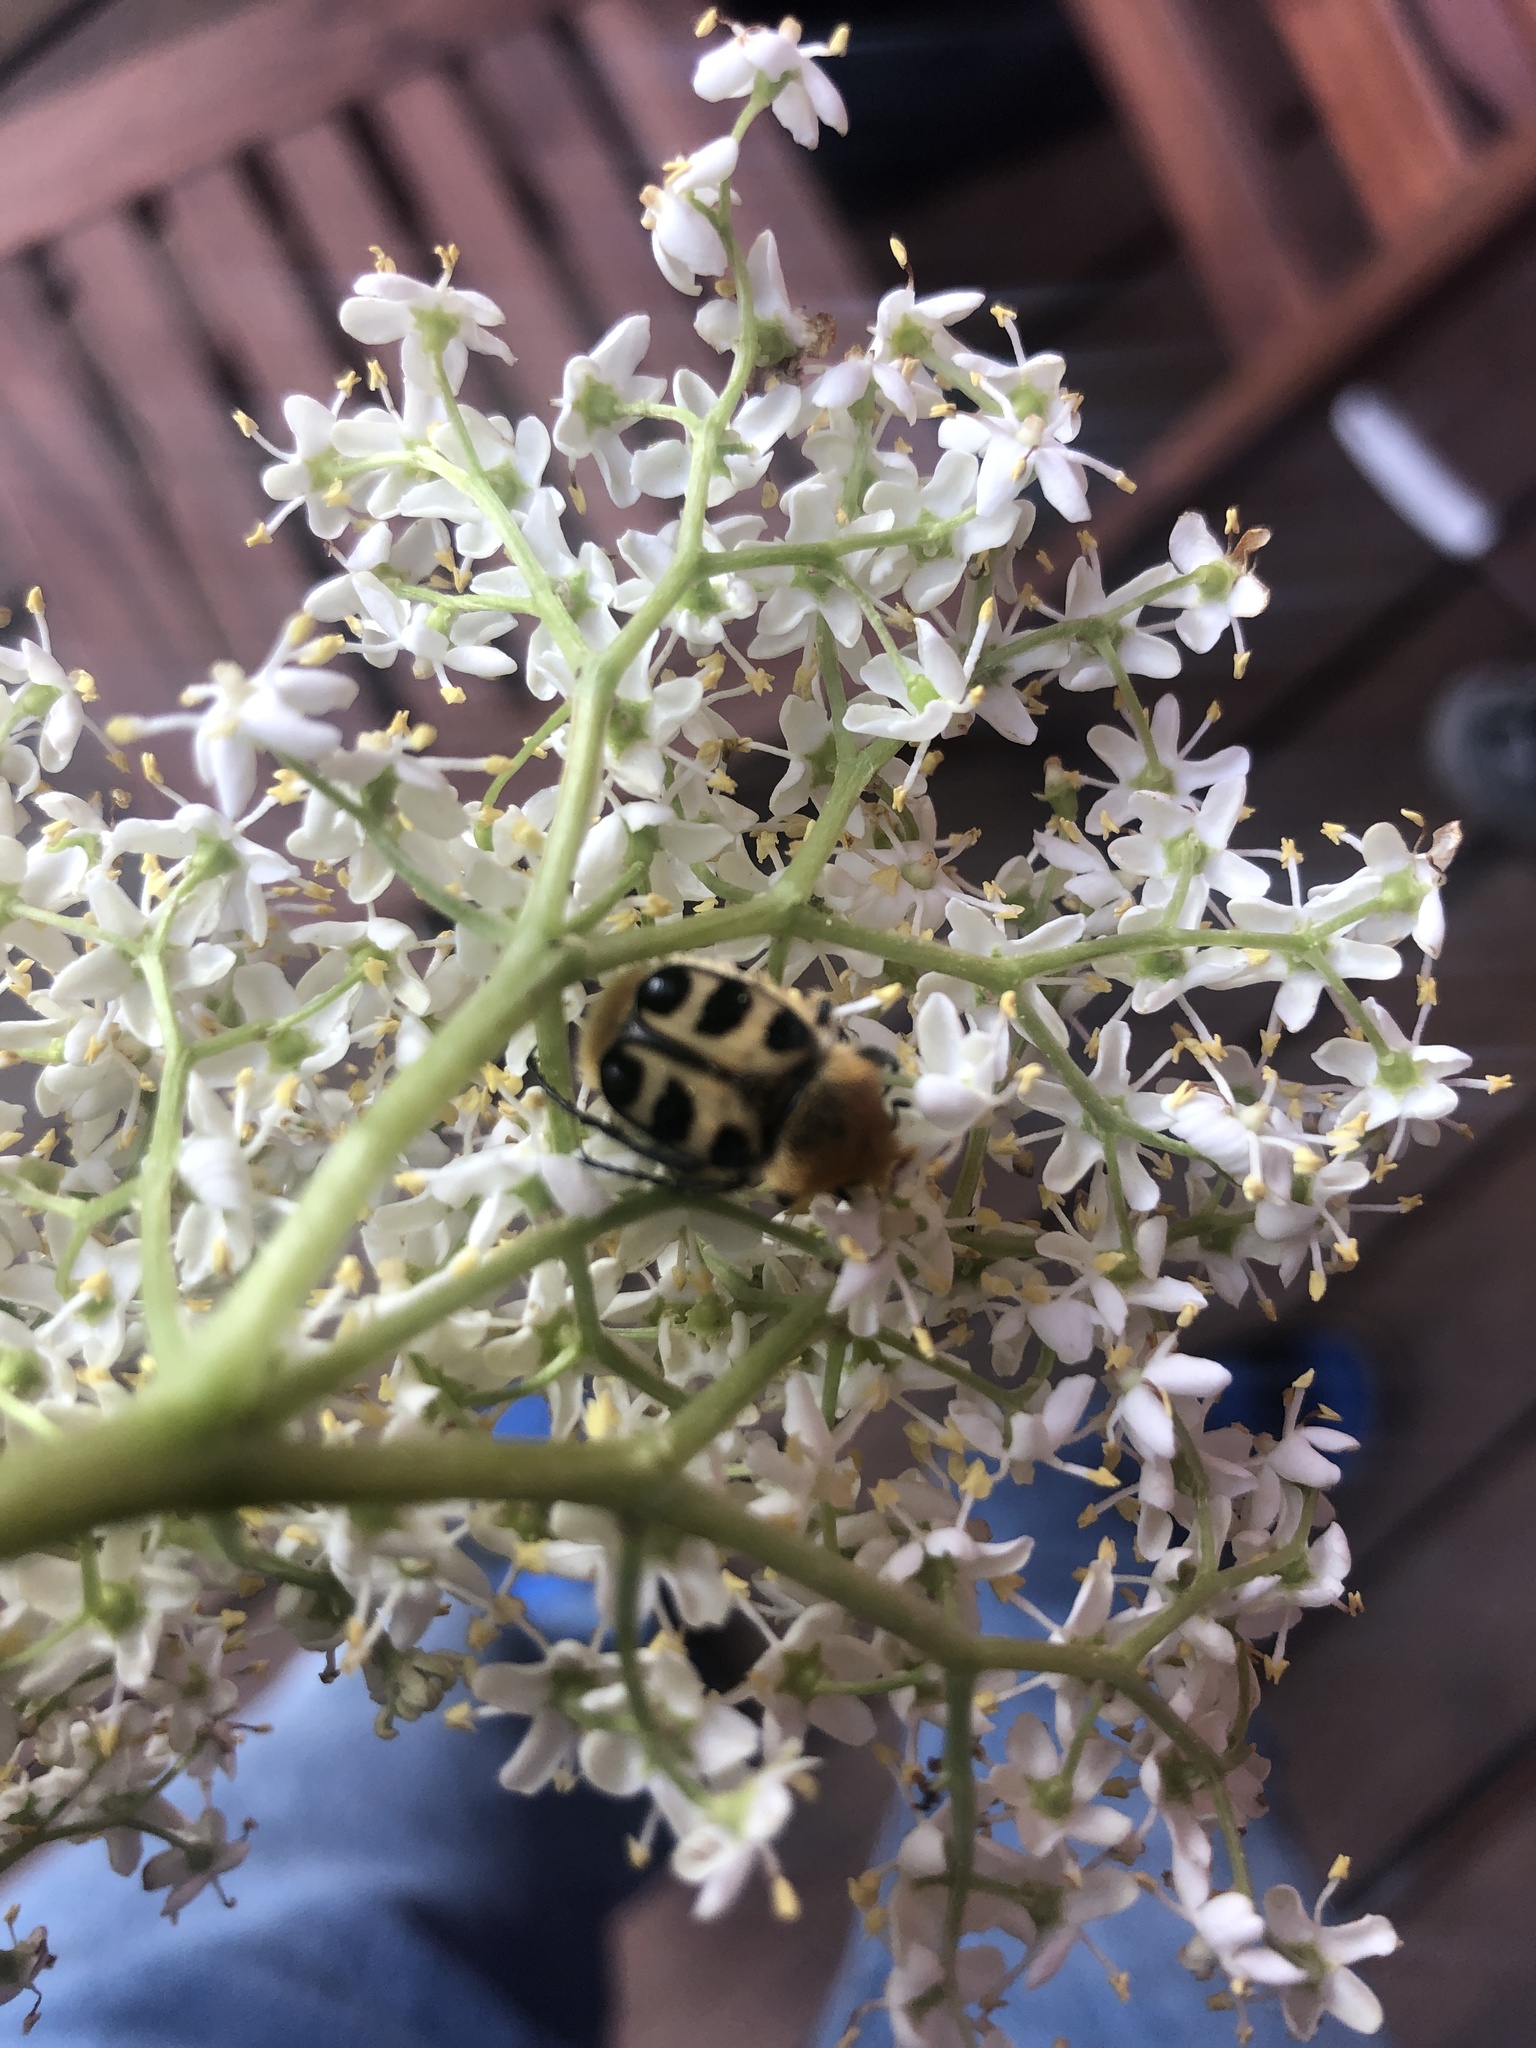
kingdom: Animalia
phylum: Arthropoda
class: Insecta
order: Coleoptera
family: Scarabaeidae
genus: Trichius
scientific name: Trichius gallicus
